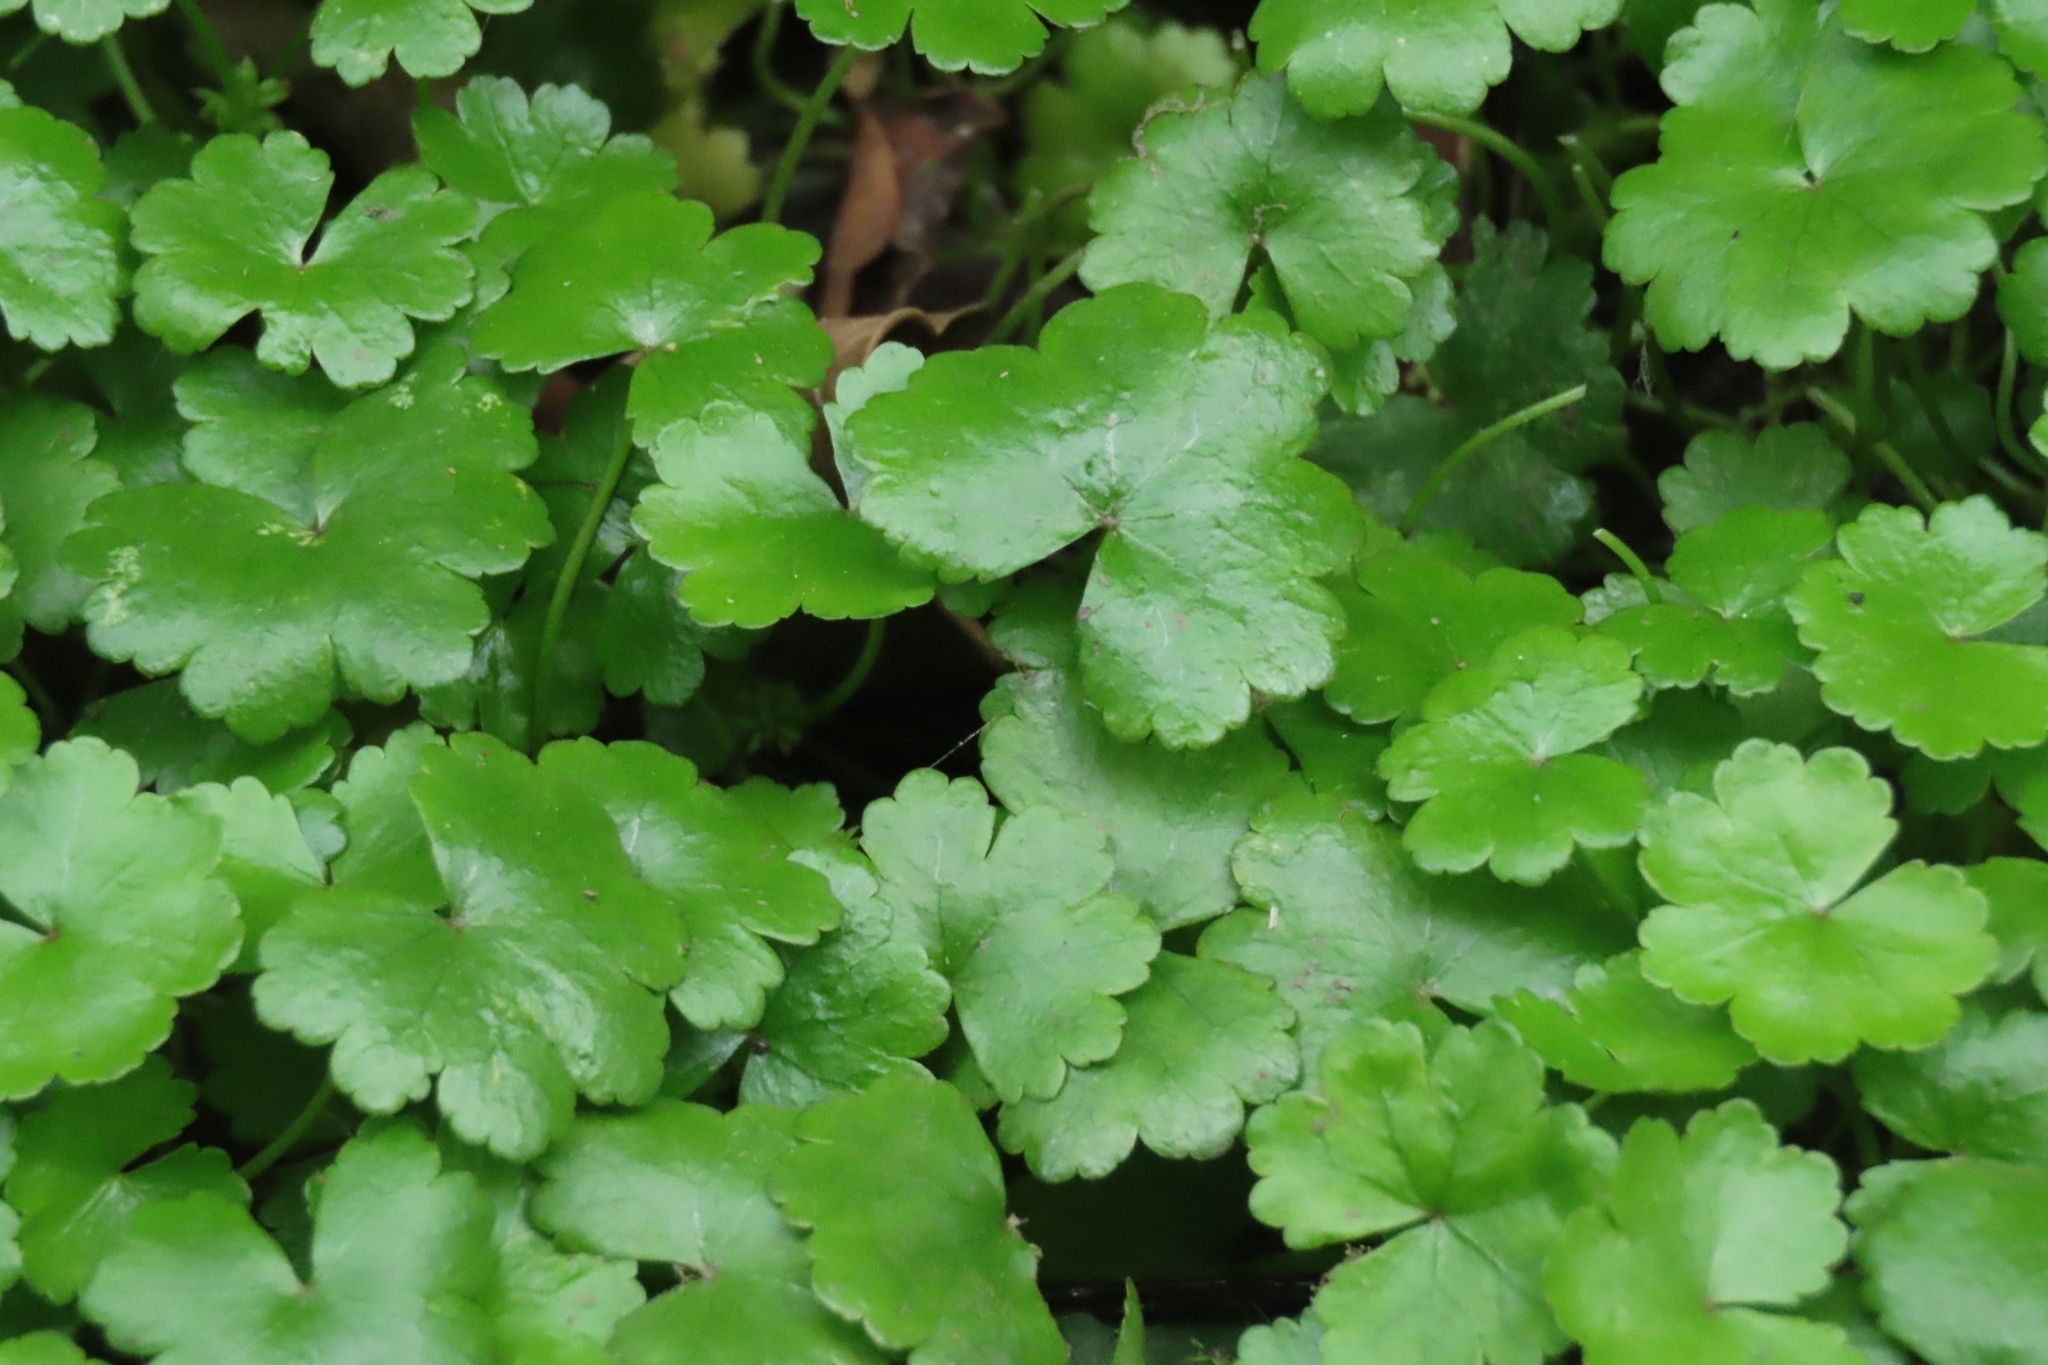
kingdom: Plantae
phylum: Tracheophyta
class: Magnoliopsida
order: Apiales
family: Araliaceae
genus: Hydrocotyle
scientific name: Hydrocotyle sibthorpioides
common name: Lawn marshpennywort
